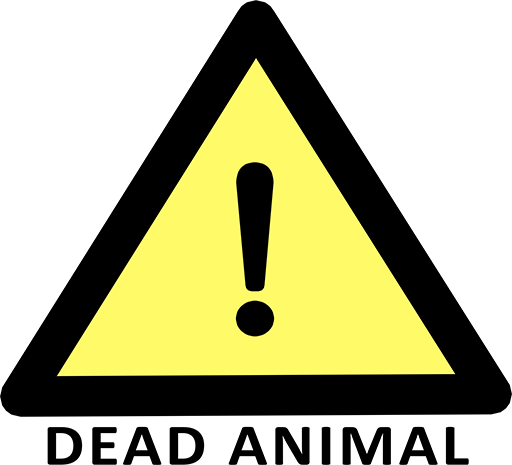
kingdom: Animalia
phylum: Chordata
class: Aves
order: Passeriformes
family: Corvidae
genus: Pica
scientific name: Pica pica
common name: Eurasian magpie
